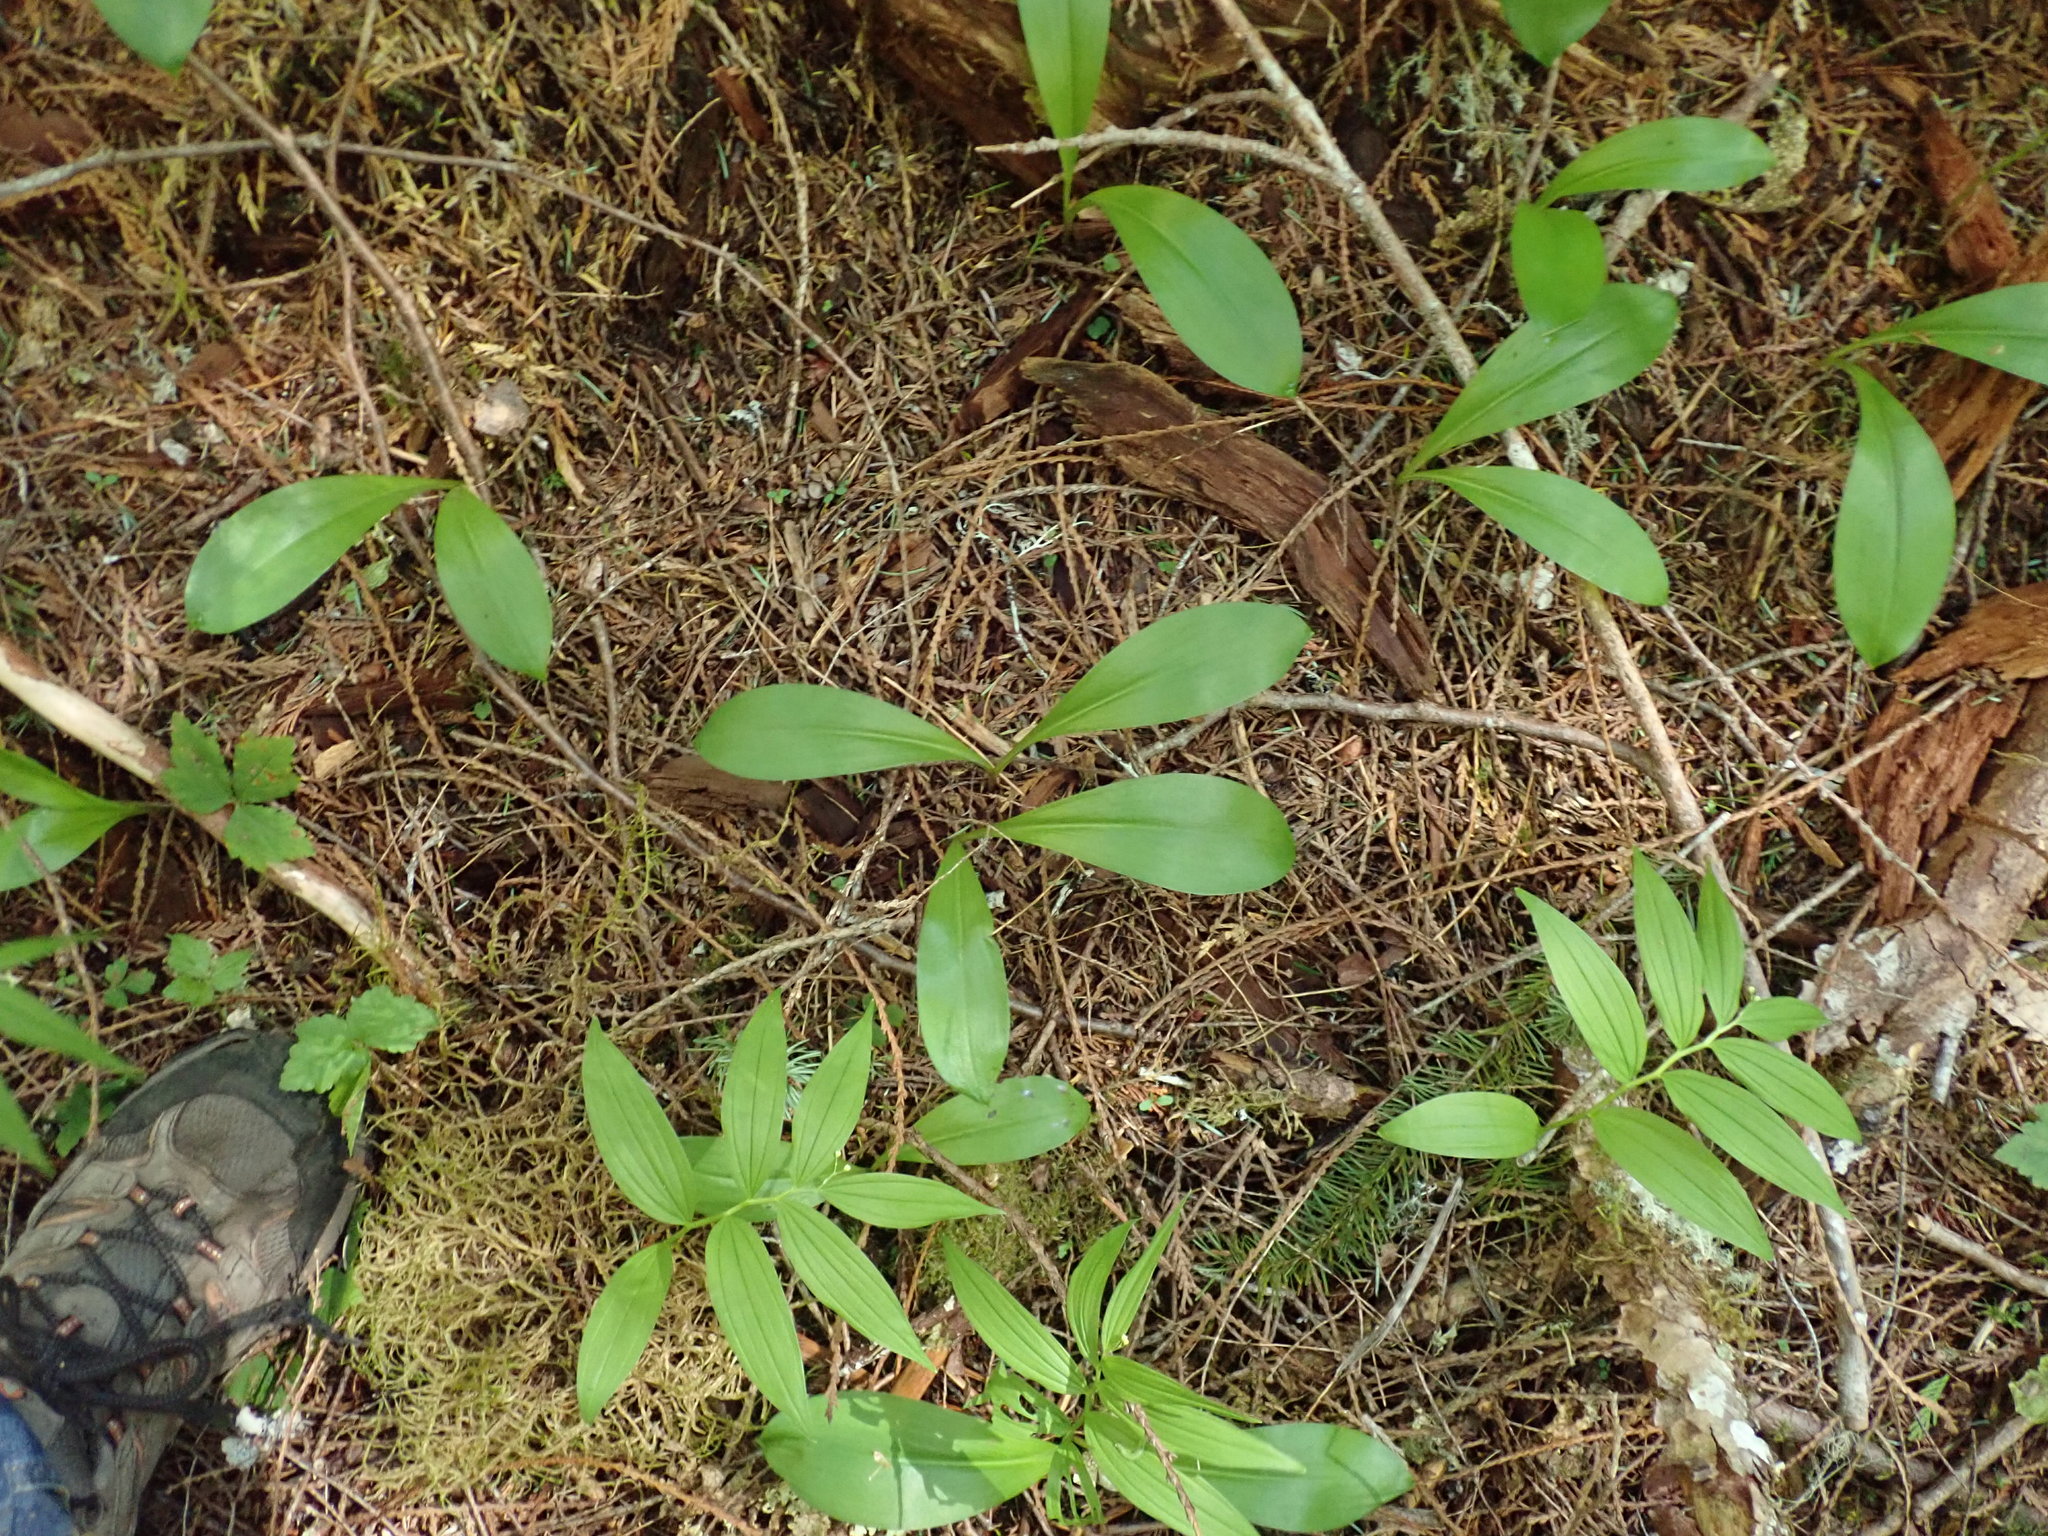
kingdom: Plantae
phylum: Tracheophyta
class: Liliopsida
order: Liliales
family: Liliaceae
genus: Clintonia
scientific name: Clintonia uniflora
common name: Queen's cup
